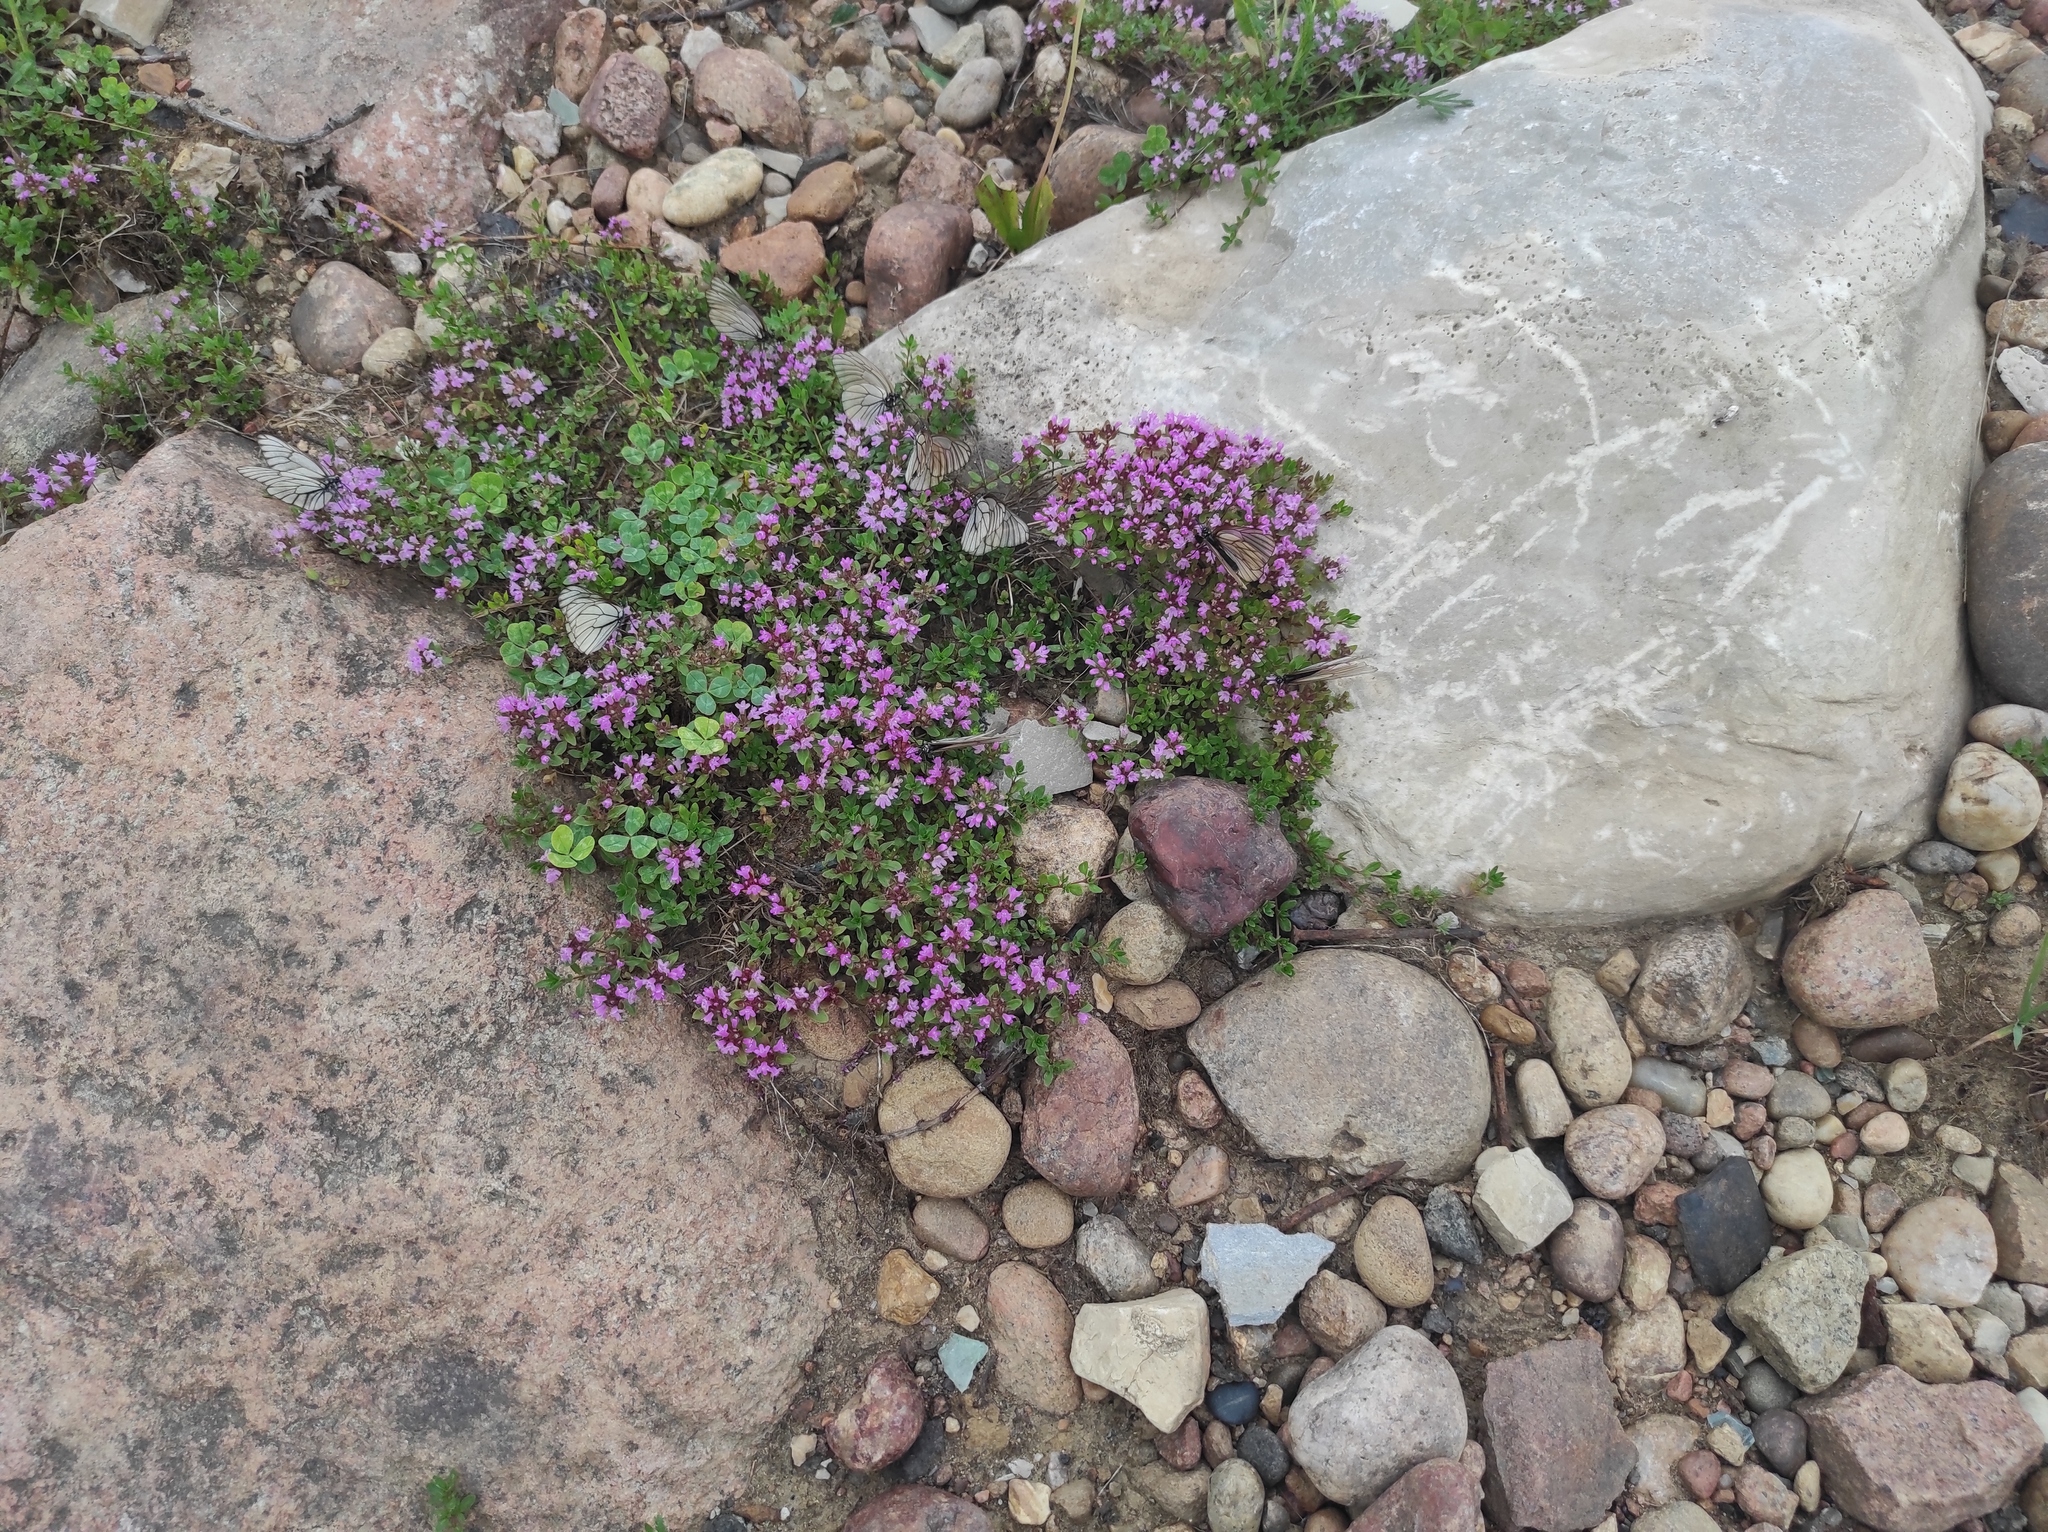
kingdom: Plantae
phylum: Tracheophyta
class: Magnoliopsida
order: Fabales
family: Fabaceae
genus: Trifolium
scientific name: Trifolium repens
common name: White clover
